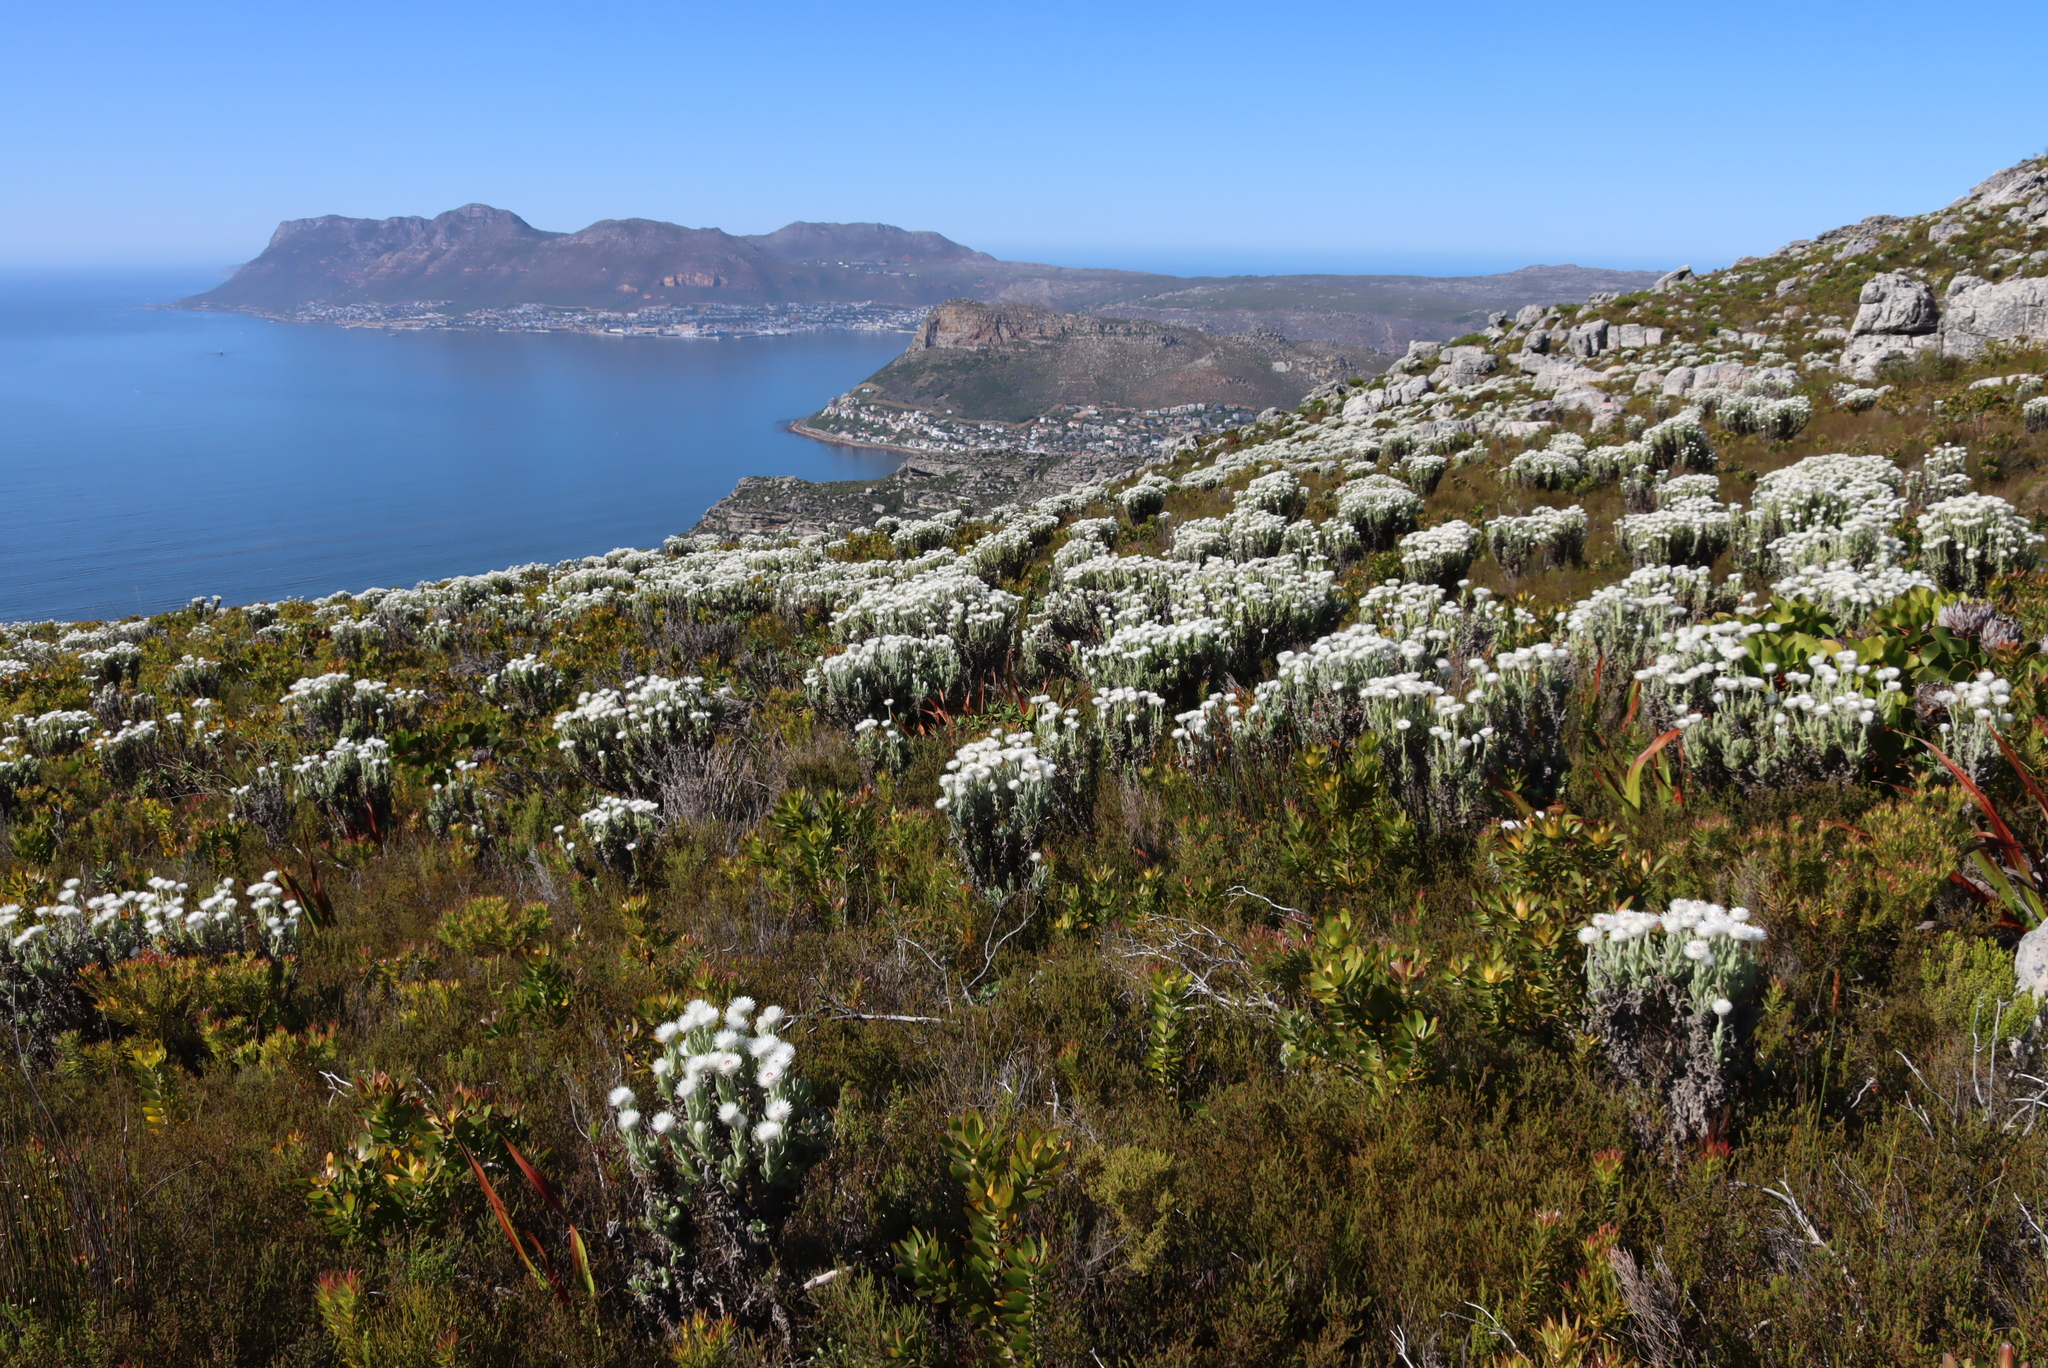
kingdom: Plantae
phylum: Tracheophyta
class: Magnoliopsida
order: Asterales
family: Asteraceae
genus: Syncarpha
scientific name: Syncarpha vestita
